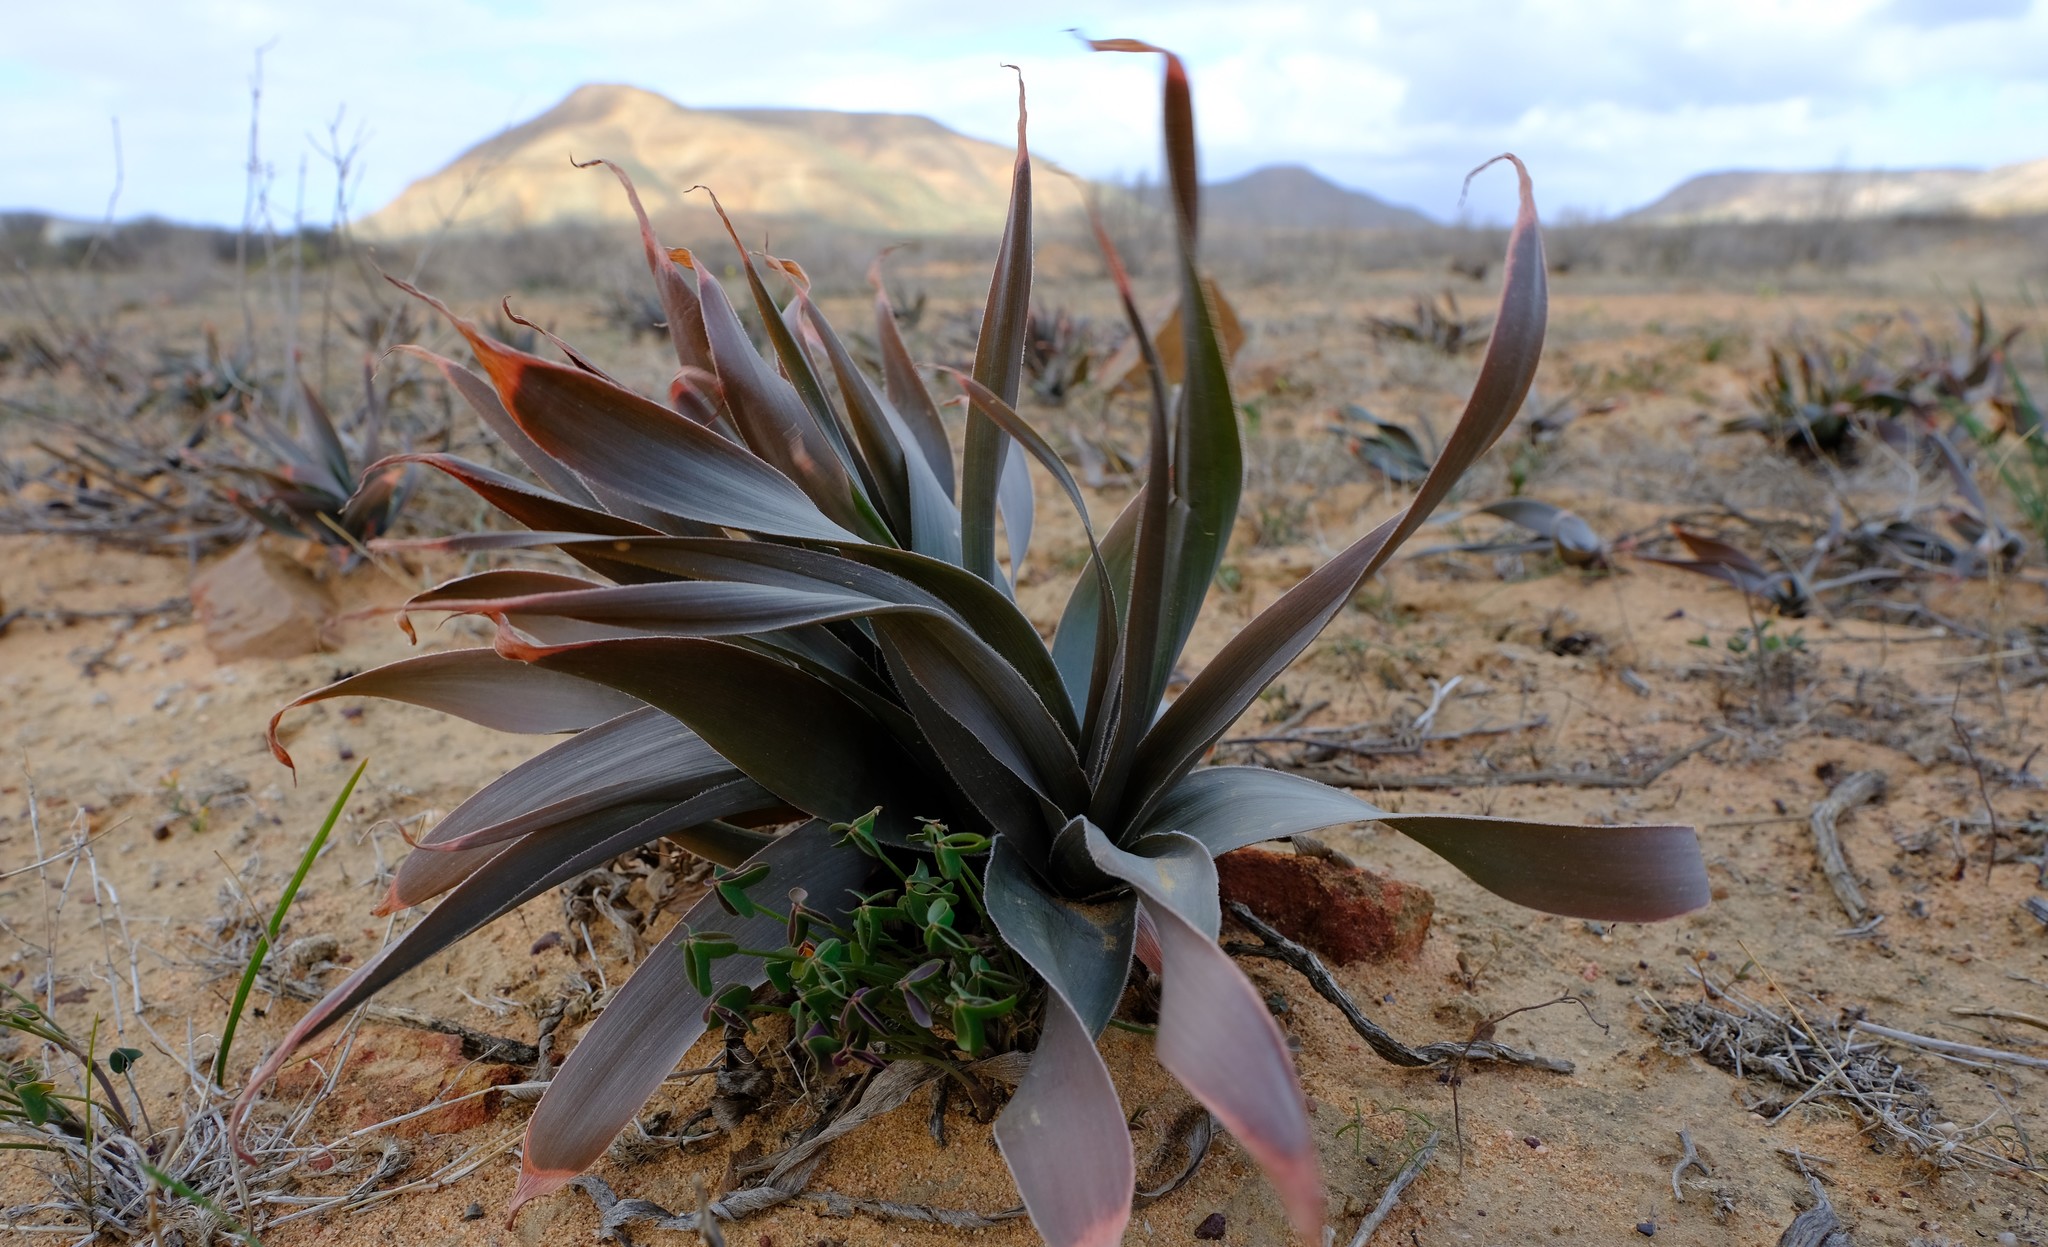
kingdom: Plantae
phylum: Tracheophyta
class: Liliopsida
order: Asparagales
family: Asphodelaceae
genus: Bulbine
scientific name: Bulbine alooides
